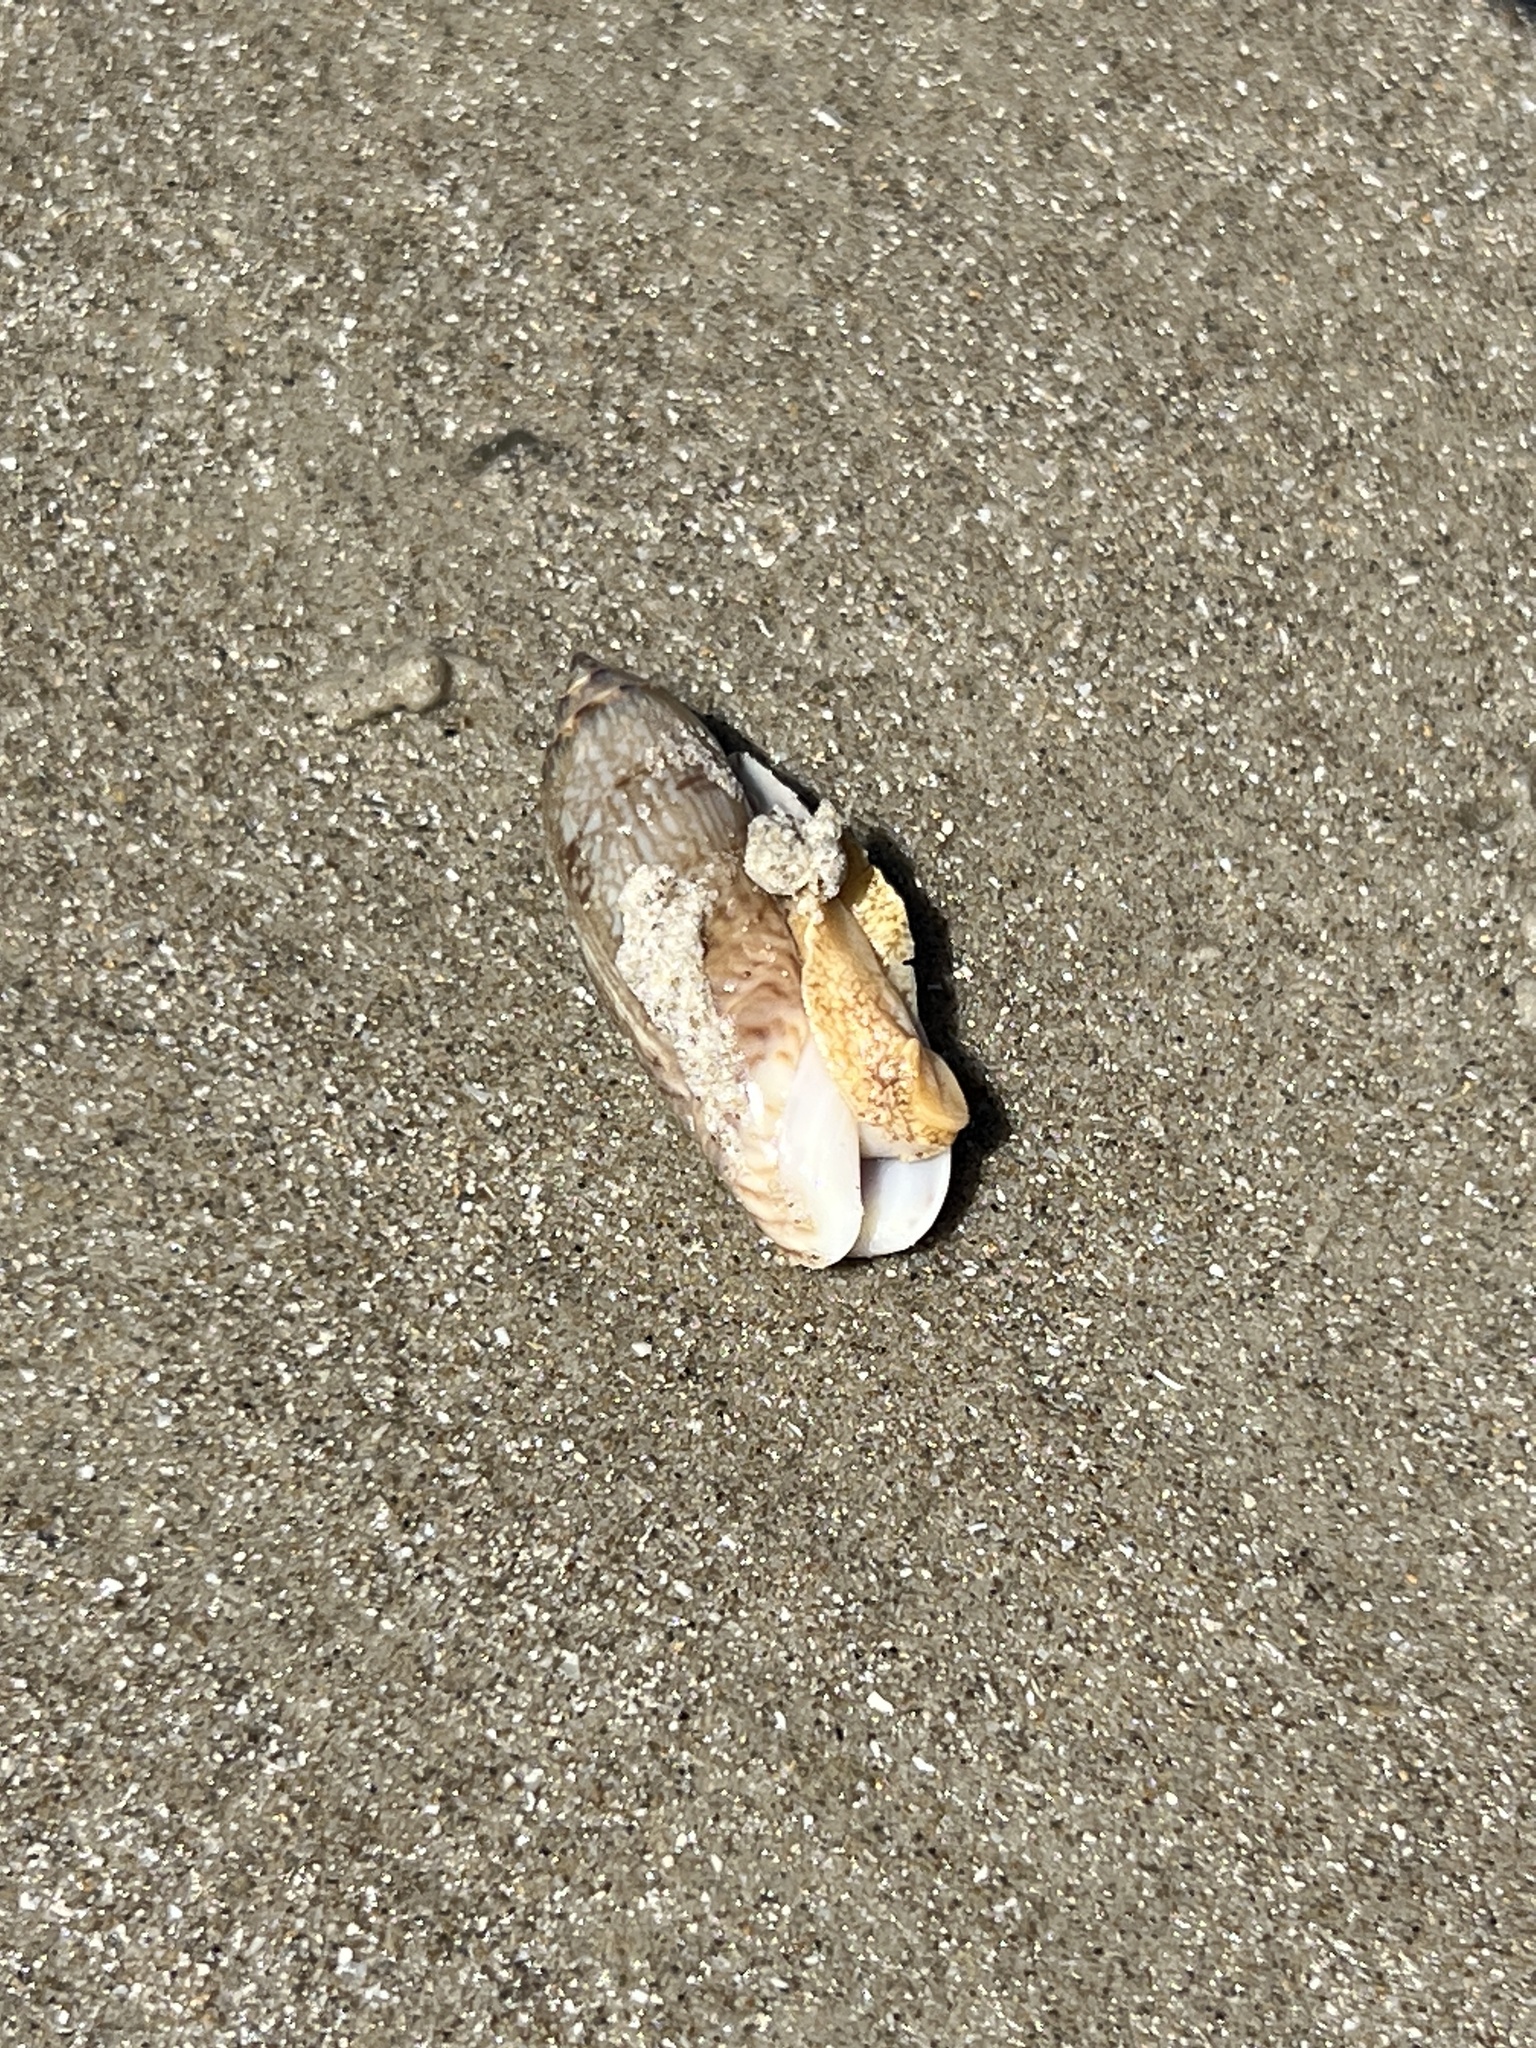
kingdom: Animalia
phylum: Mollusca
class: Gastropoda
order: Neogastropoda
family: Olividae
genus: Oliva
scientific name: Oliva sayana
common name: Lettered olive
